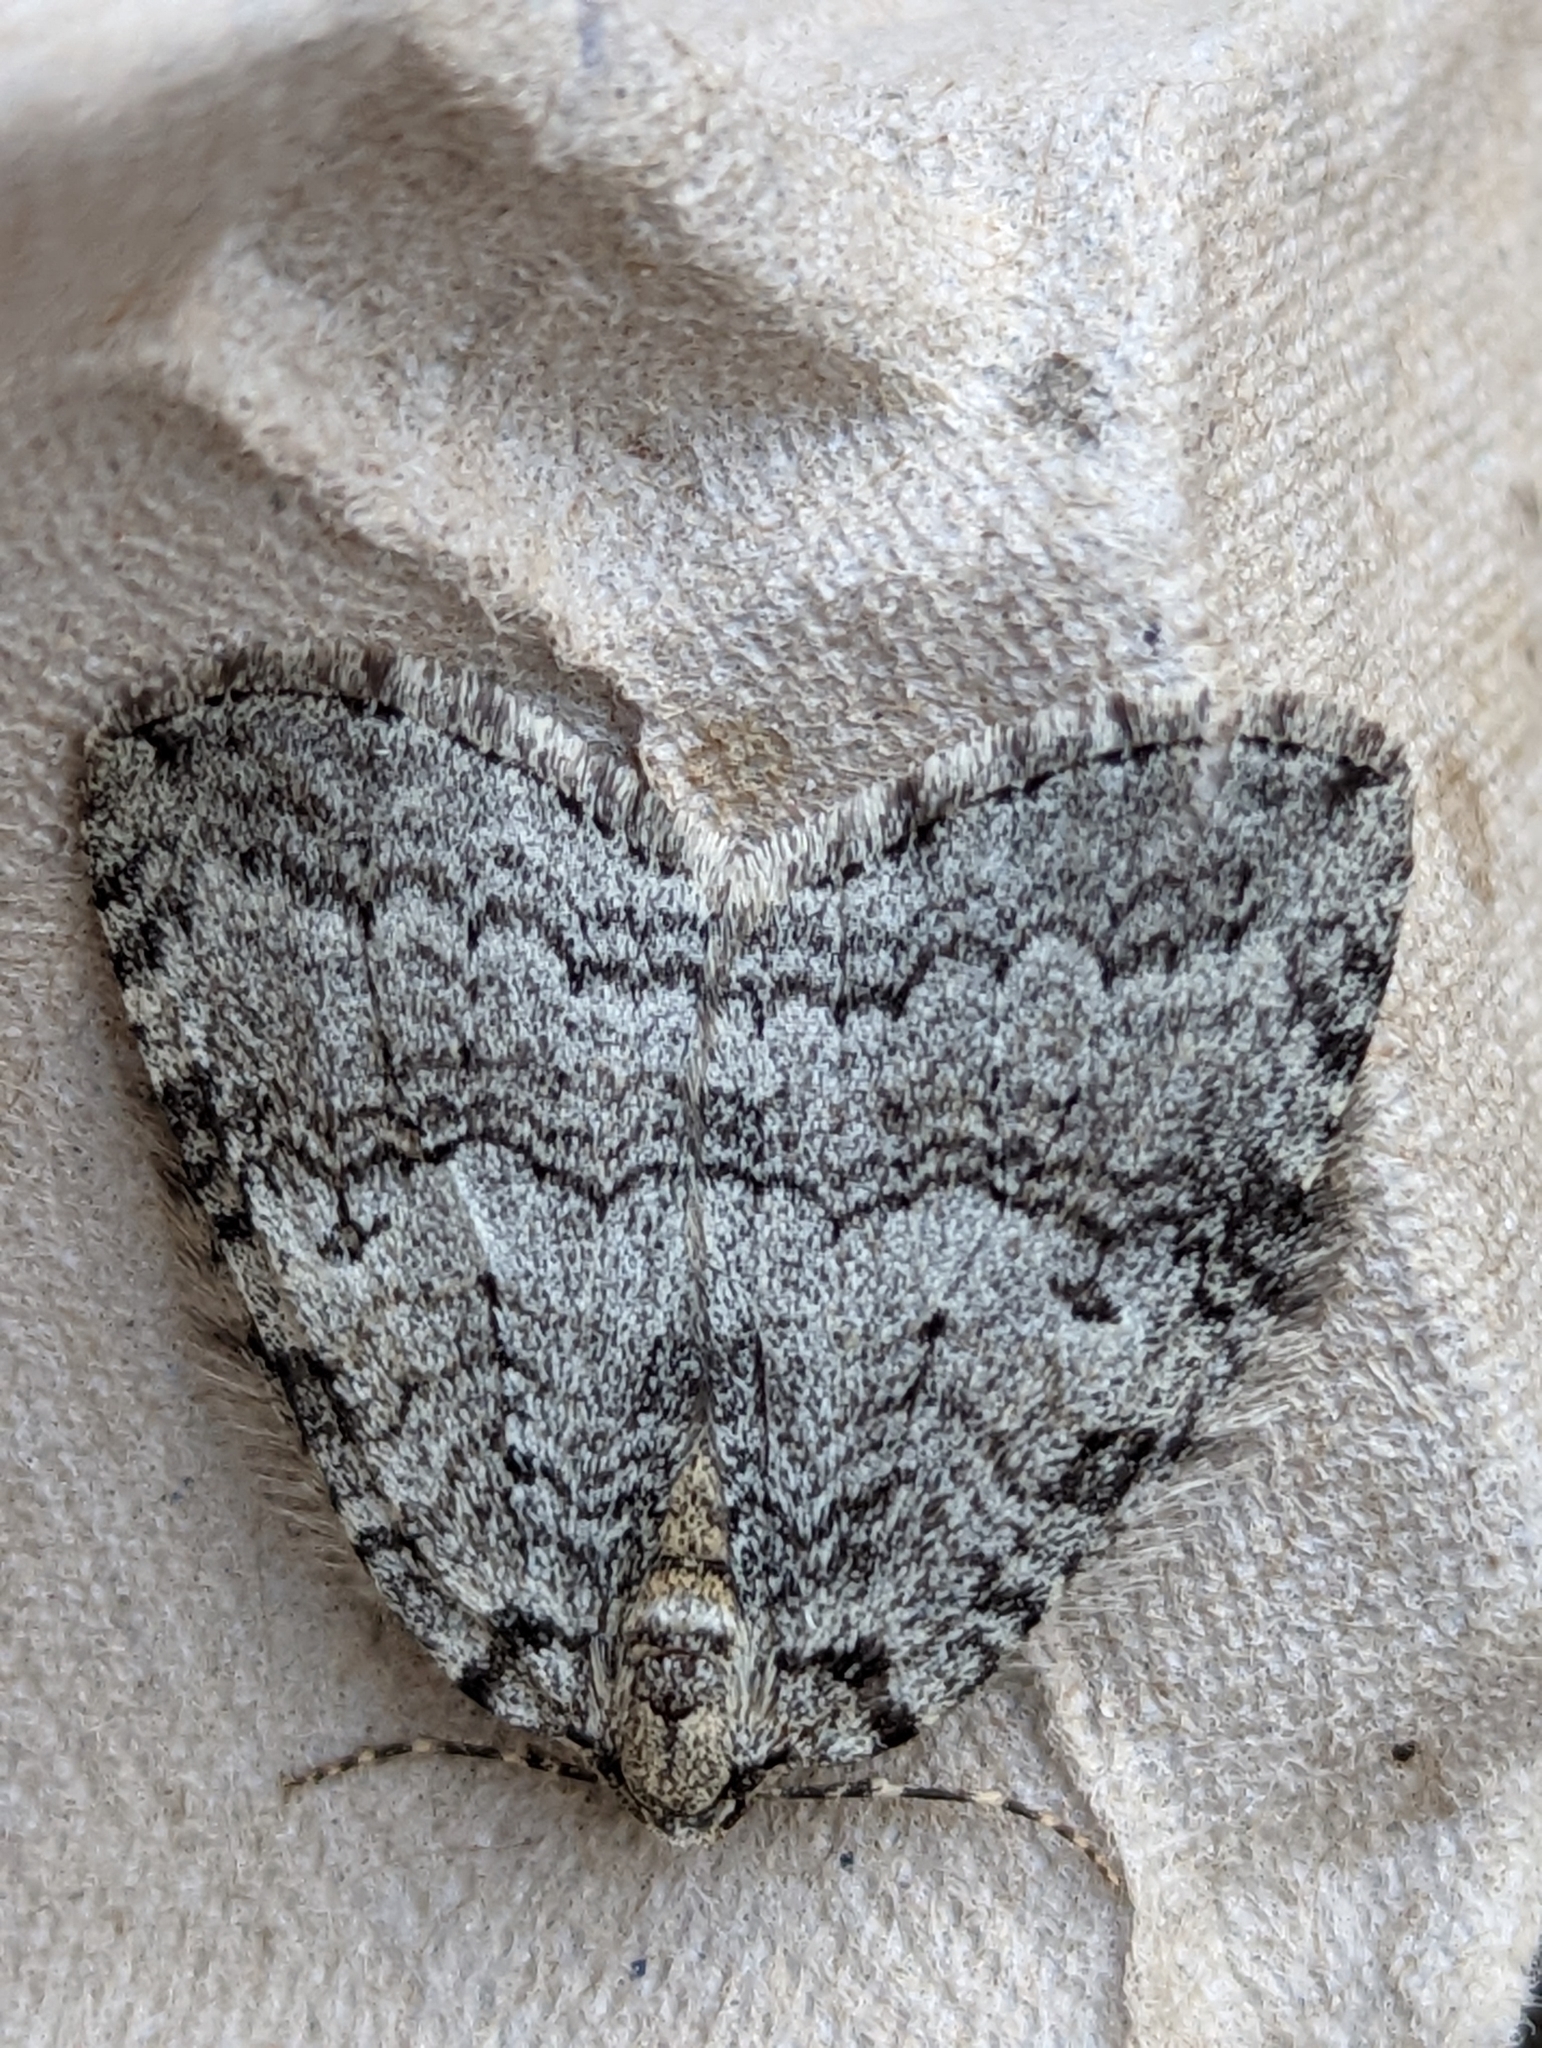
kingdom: Animalia
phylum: Arthropoda
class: Insecta
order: Lepidoptera
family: Geometridae
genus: Epirrita
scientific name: Epirrita dilutata
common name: November moth
